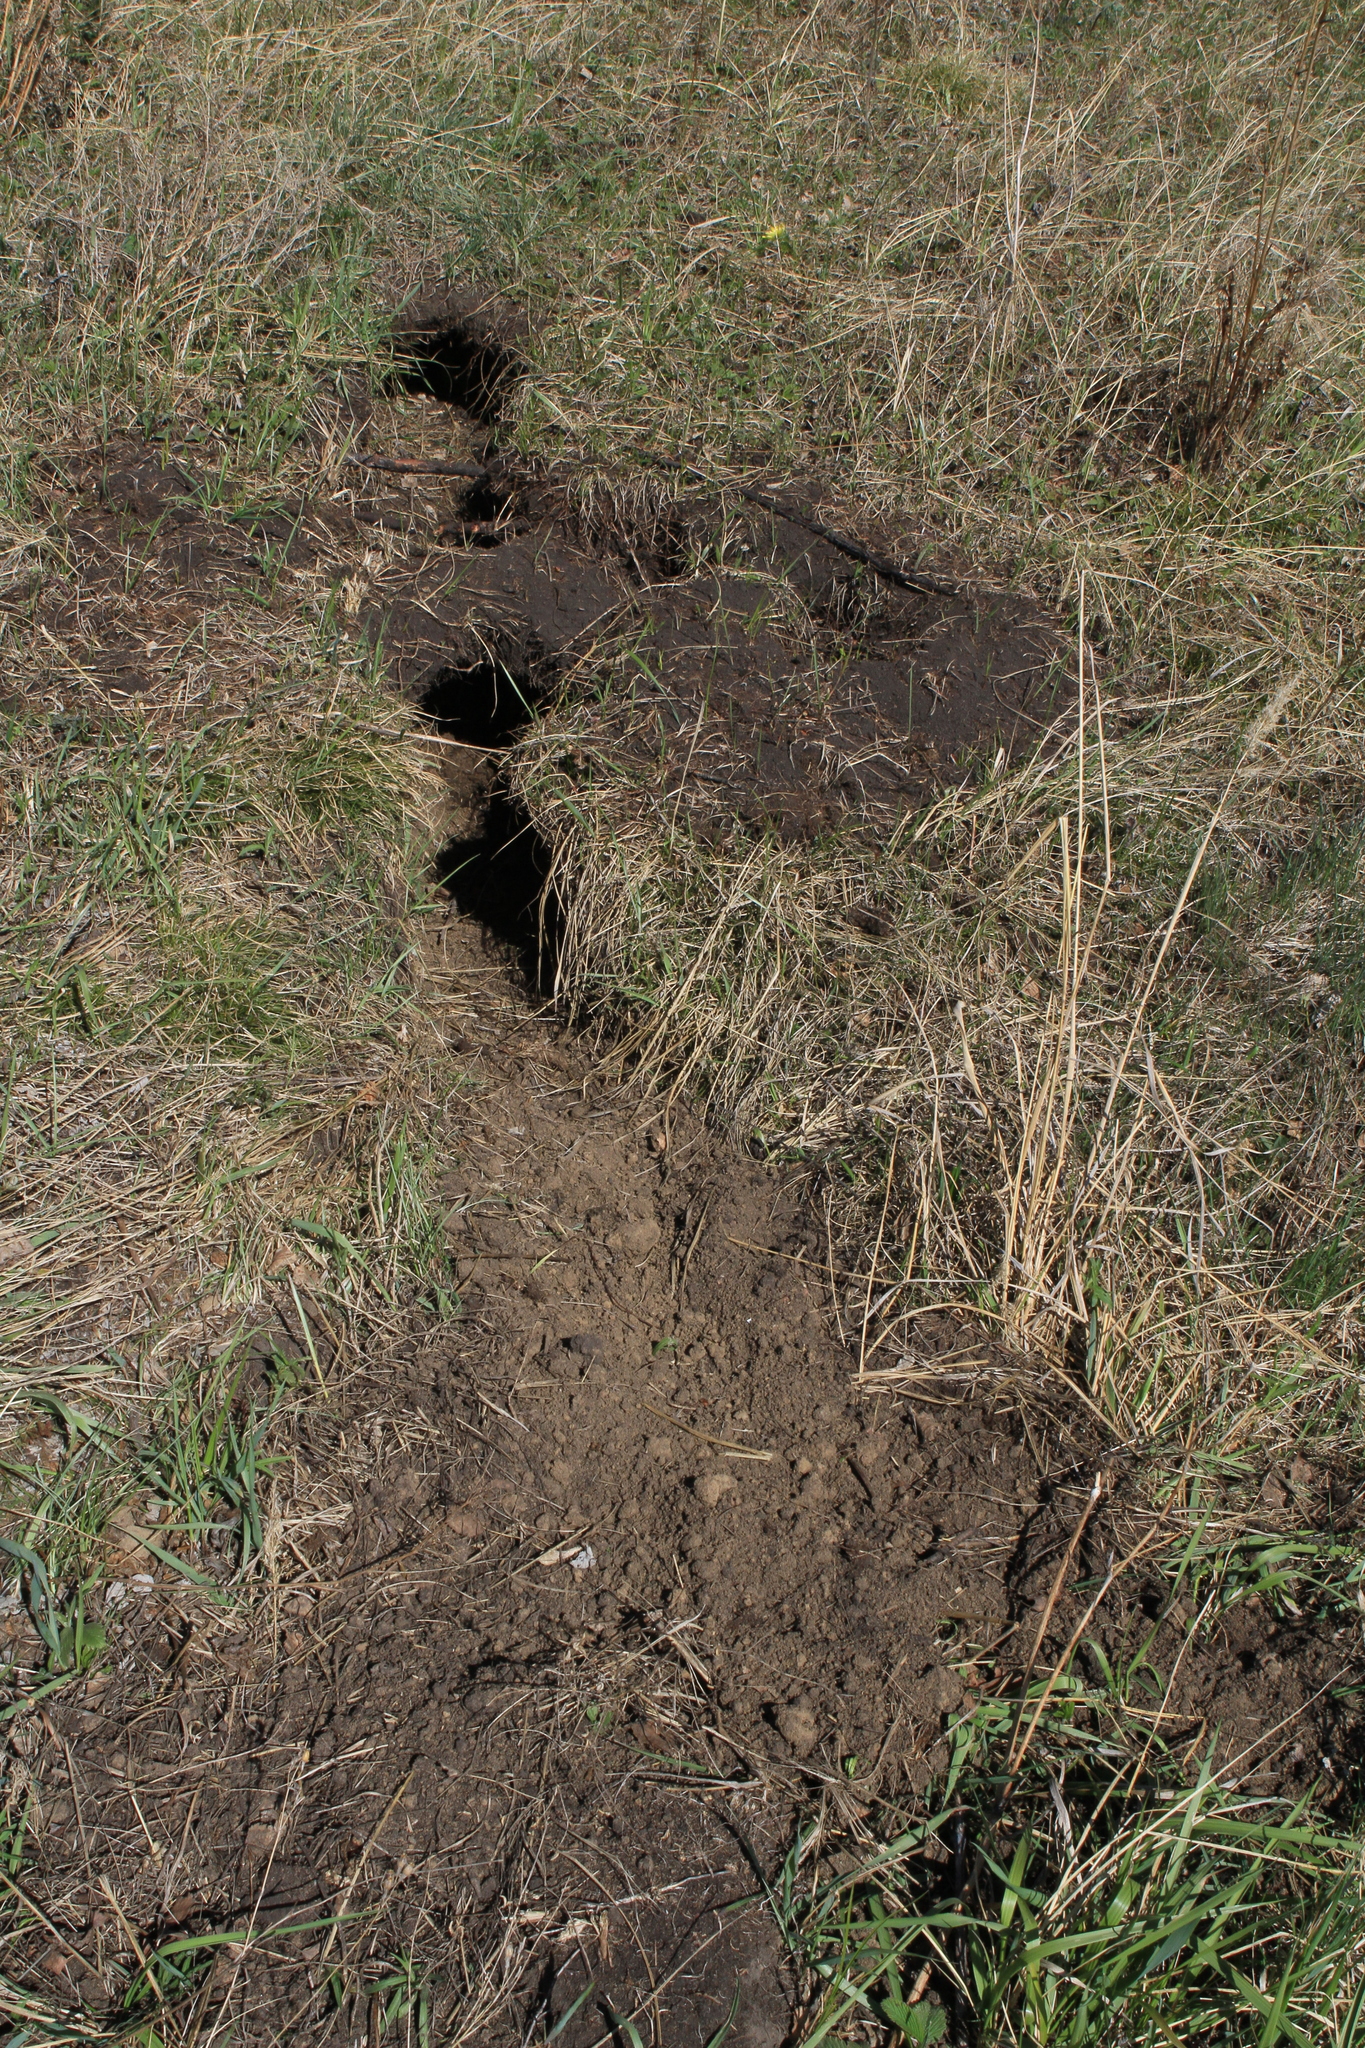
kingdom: Animalia
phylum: Chordata
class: Mammalia
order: Rodentia
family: Sciuridae
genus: Marmota
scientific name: Marmota kastschenkoi
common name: Forest steppe marmot
